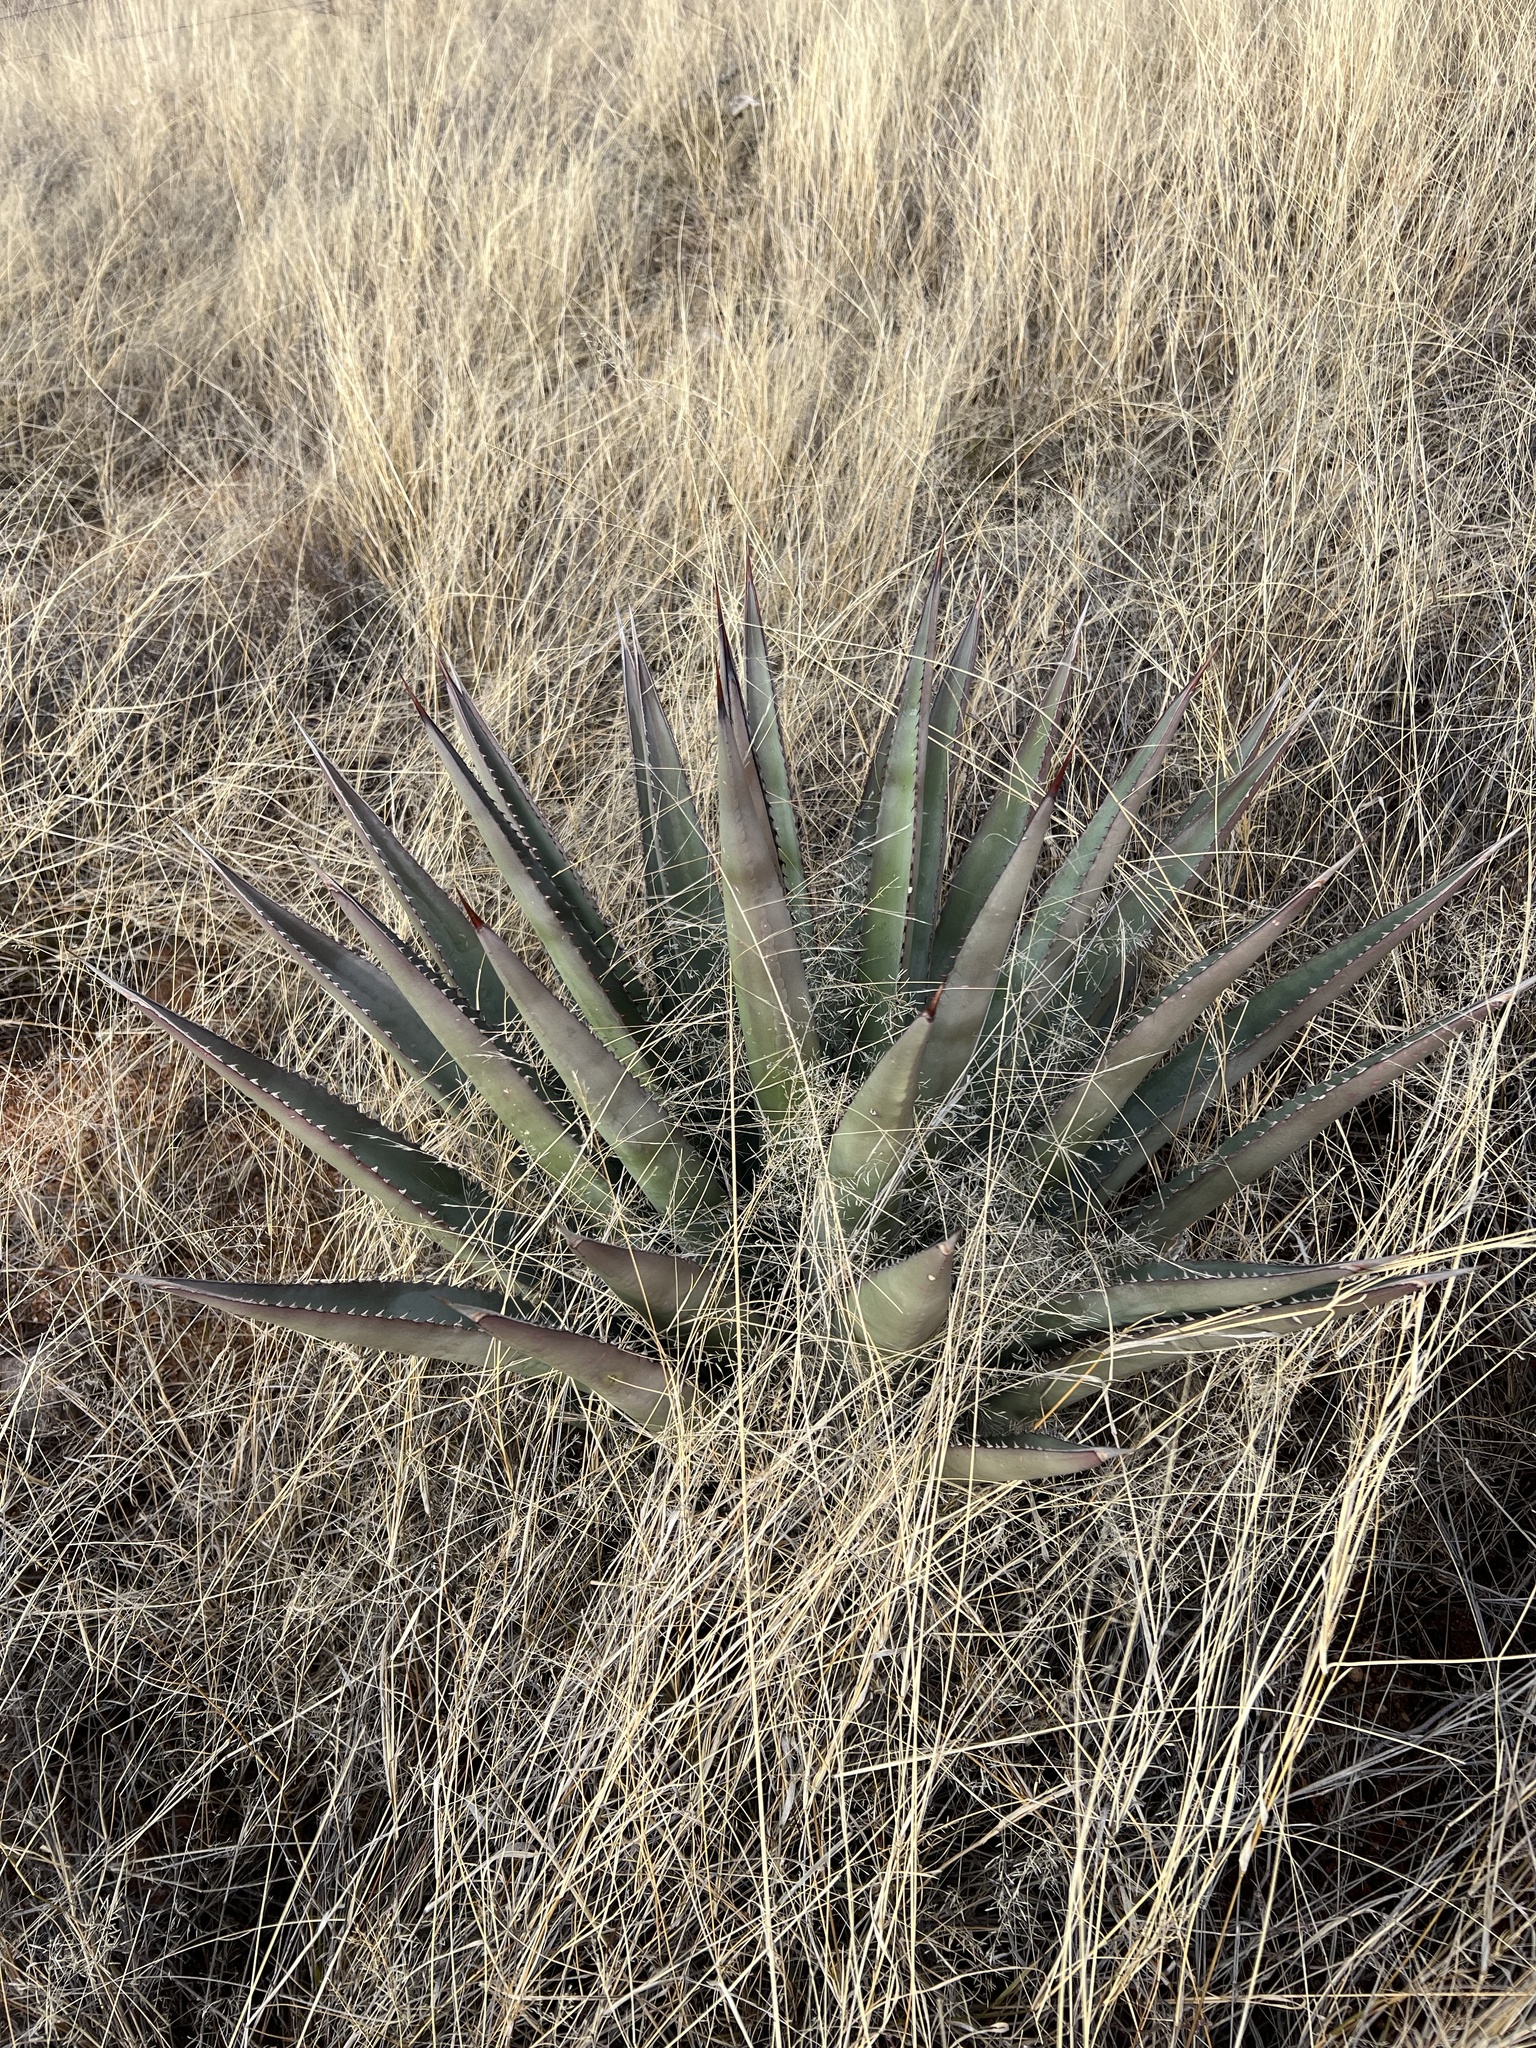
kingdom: Plantae
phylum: Tracheophyta
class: Liliopsida
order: Asparagales
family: Asparagaceae
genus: Agave
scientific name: Agave palmeri
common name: Palmer agave
